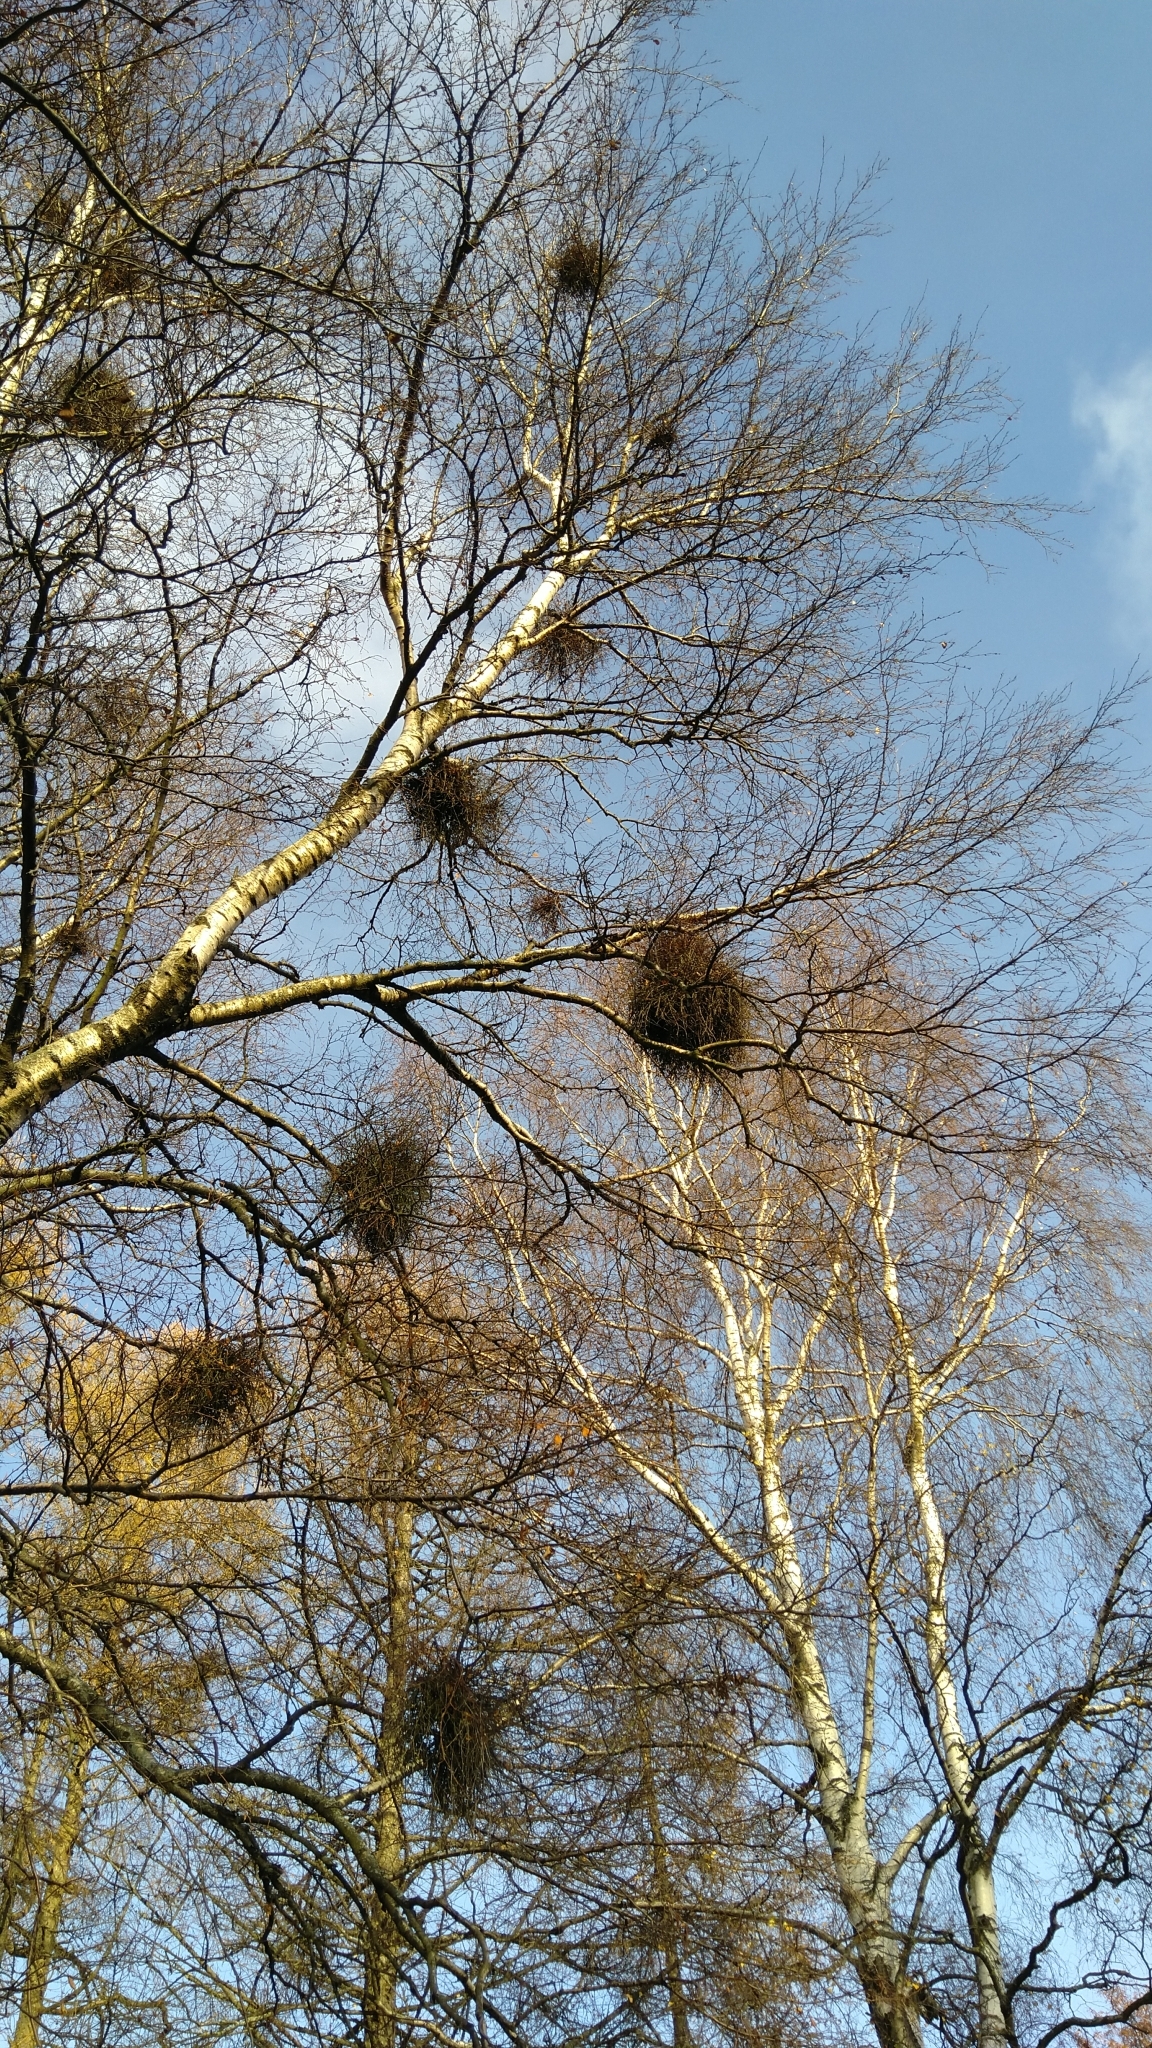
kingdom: Fungi
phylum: Ascomycota
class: Taphrinomycetes
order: Taphrinales
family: Taphrinaceae
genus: Taphrina
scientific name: Taphrina betulina
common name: Birch besom
